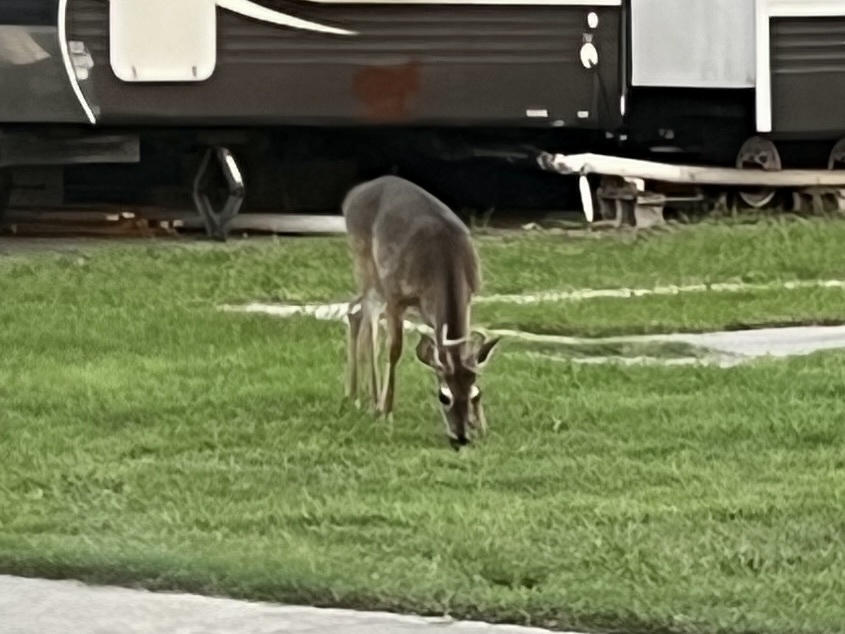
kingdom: Animalia
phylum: Chordata
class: Mammalia
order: Artiodactyla
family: Cervidae
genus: Odocoileus
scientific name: Odocoileus virginianus
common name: White-tailed deer
